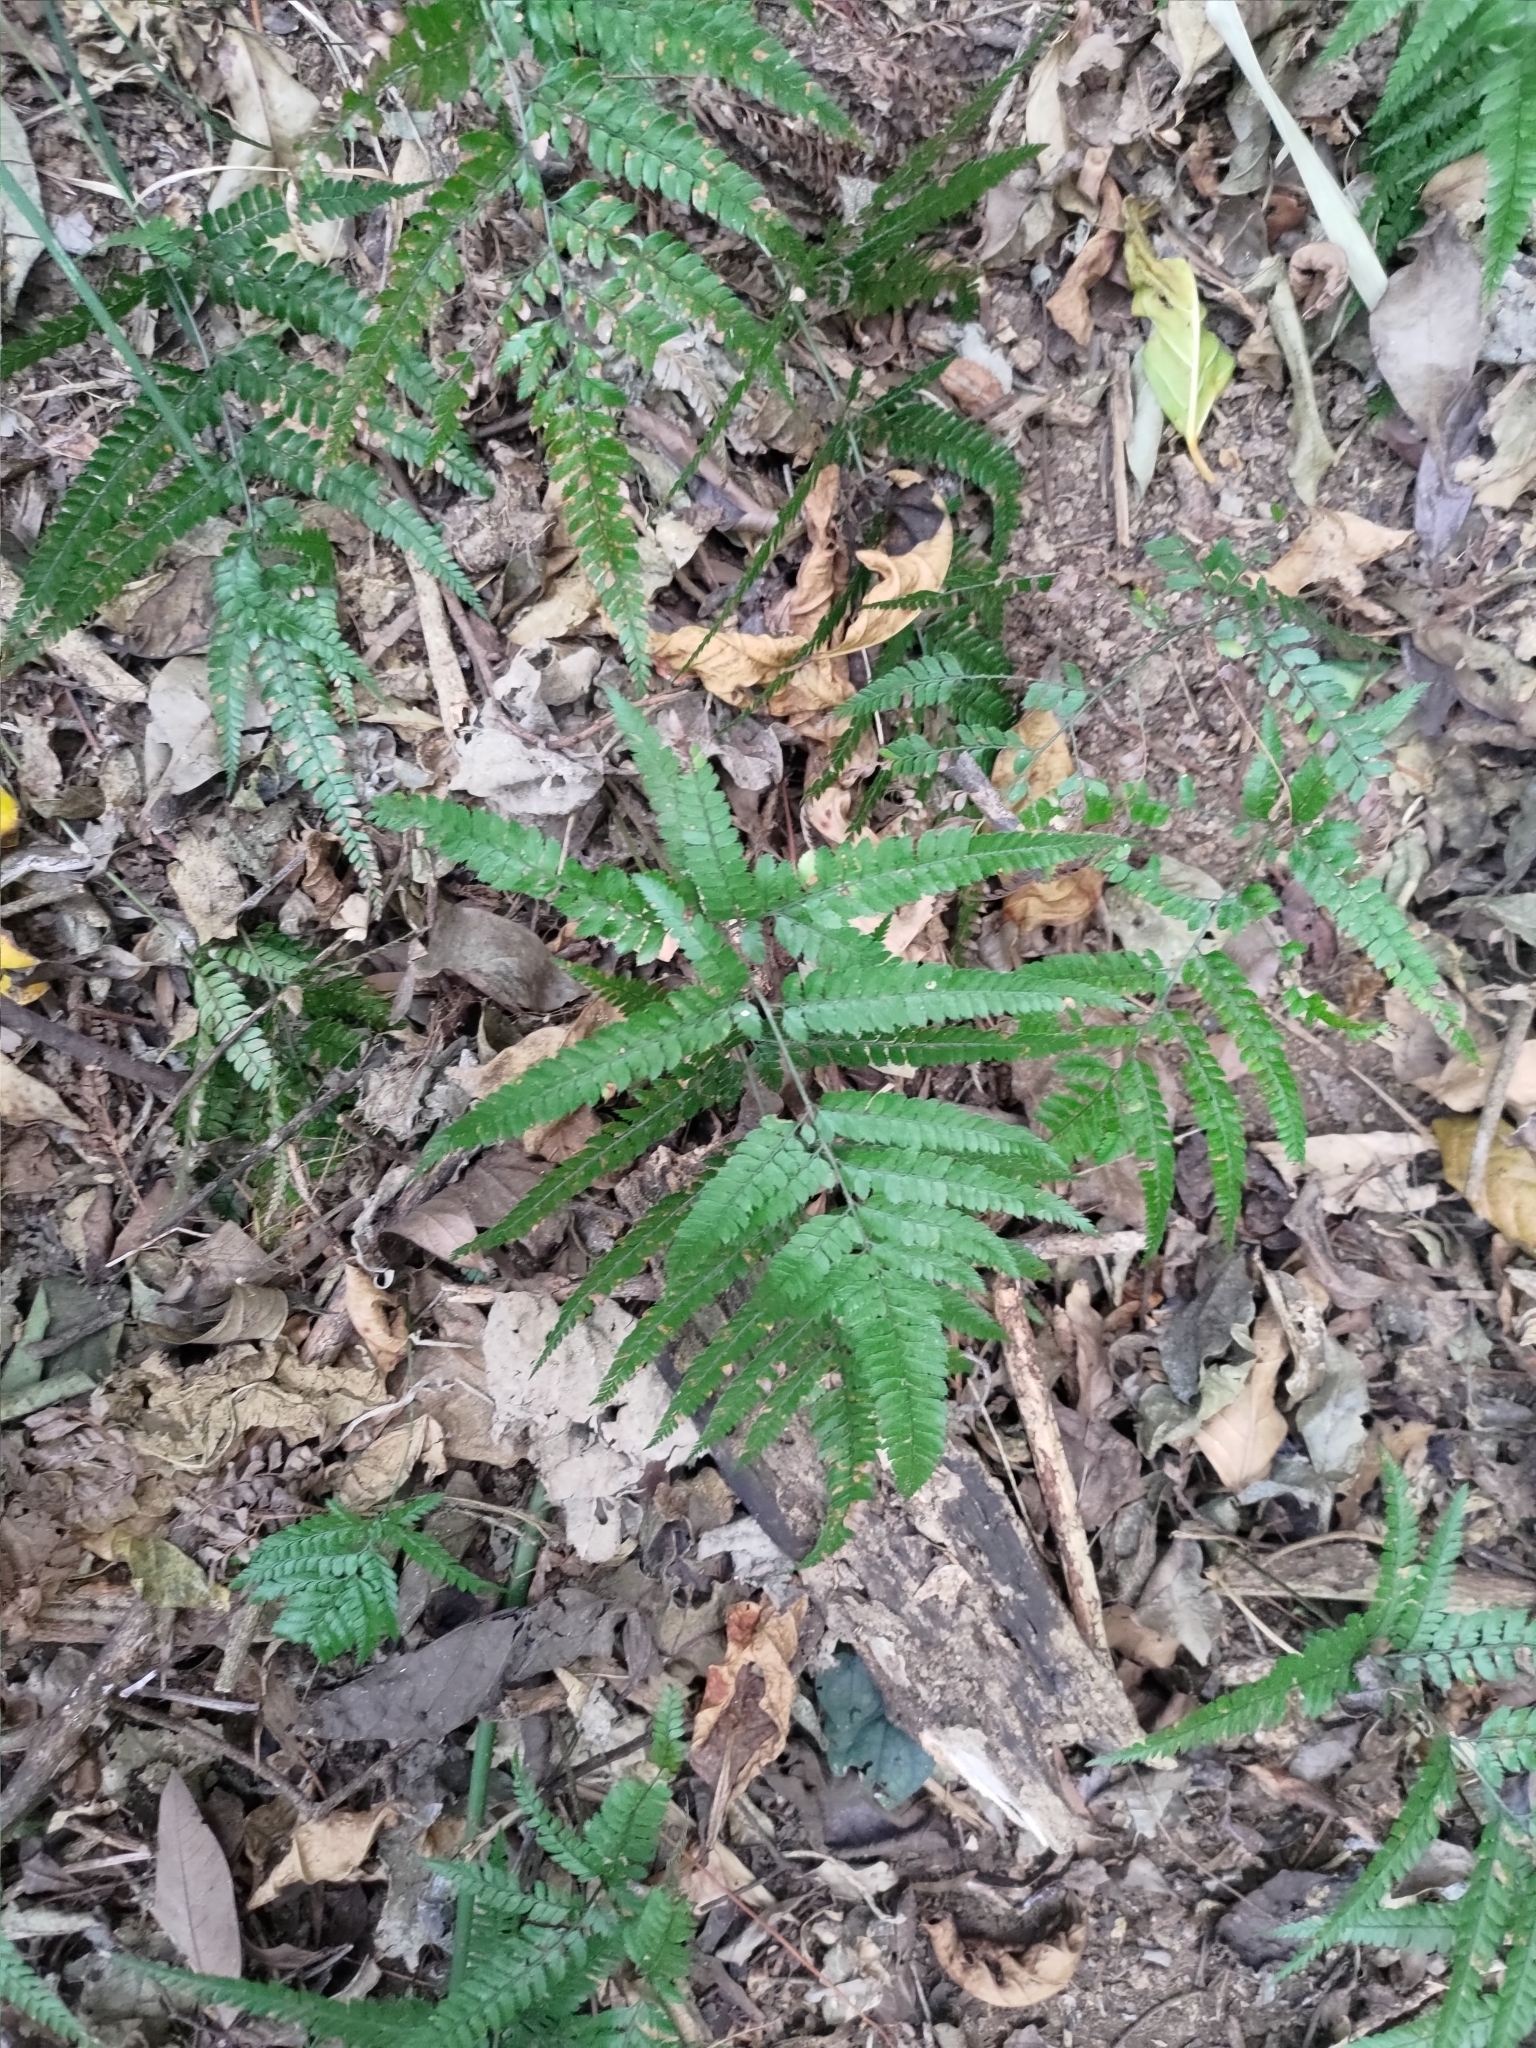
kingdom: Plantae
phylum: Tracheophyta
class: Polypodiopsida
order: Polypodiales
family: Dryopteridaceae
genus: Arachniodes
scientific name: Arachniodes aristata
